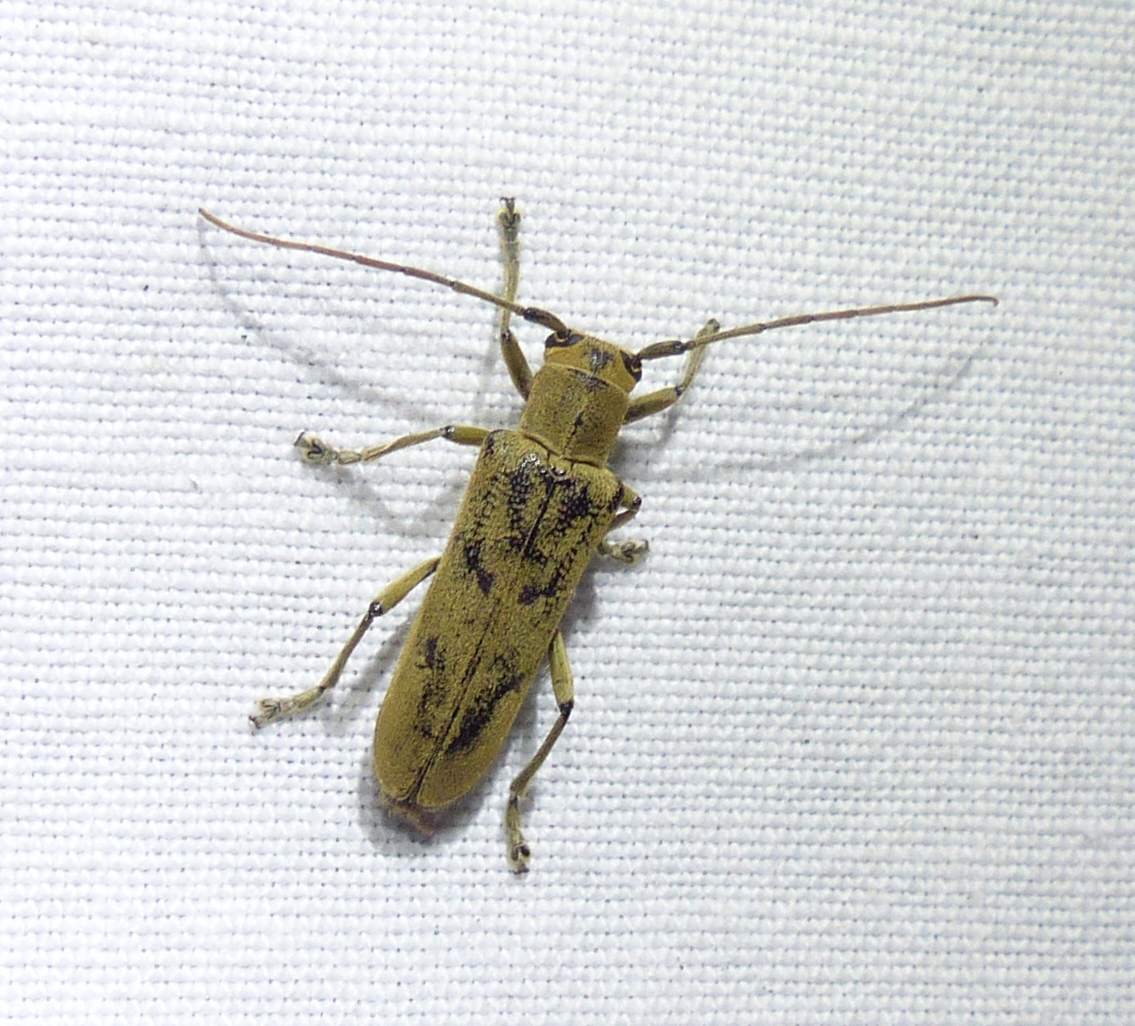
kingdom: Animalia
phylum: Arthropoda
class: Insecta
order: Coleoptera
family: Cerambycidae
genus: Saperda
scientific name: Saperda vestita
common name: Linden borer
